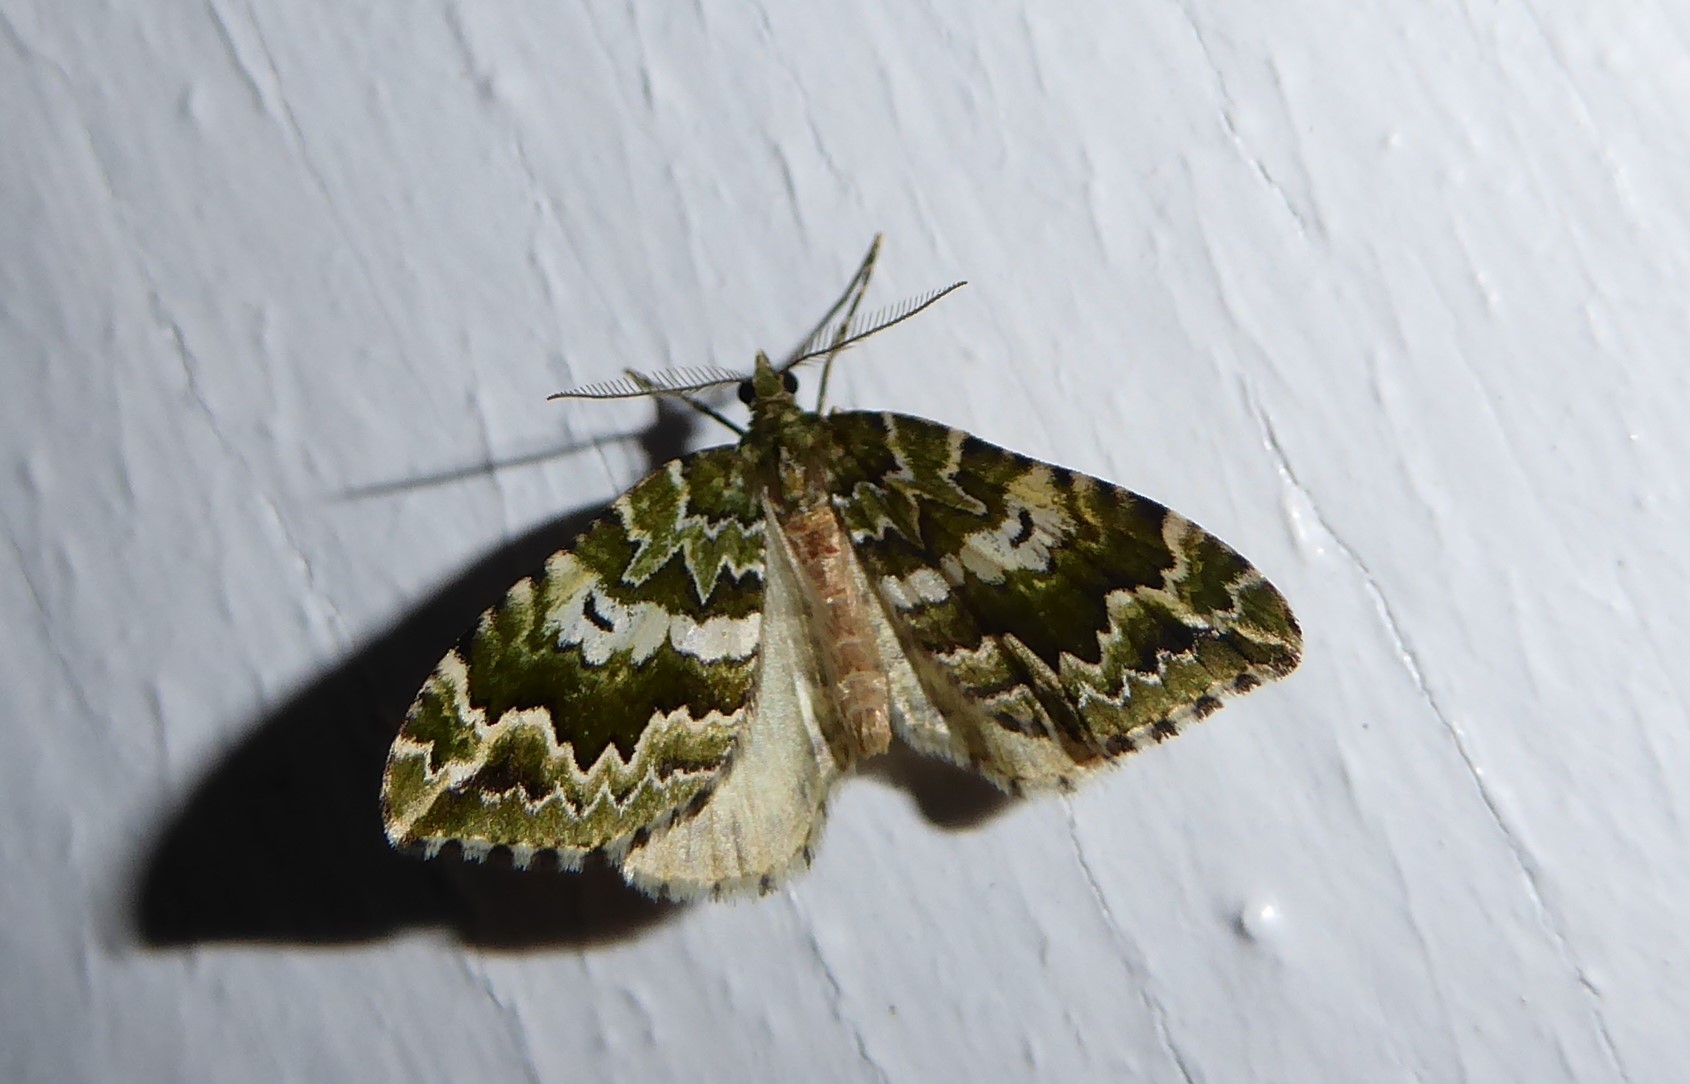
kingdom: Animalia
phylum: Arthropoda
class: Insecta
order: Lepidoptera
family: Geometridae
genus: Asaphodes
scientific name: Asaphodes beata
